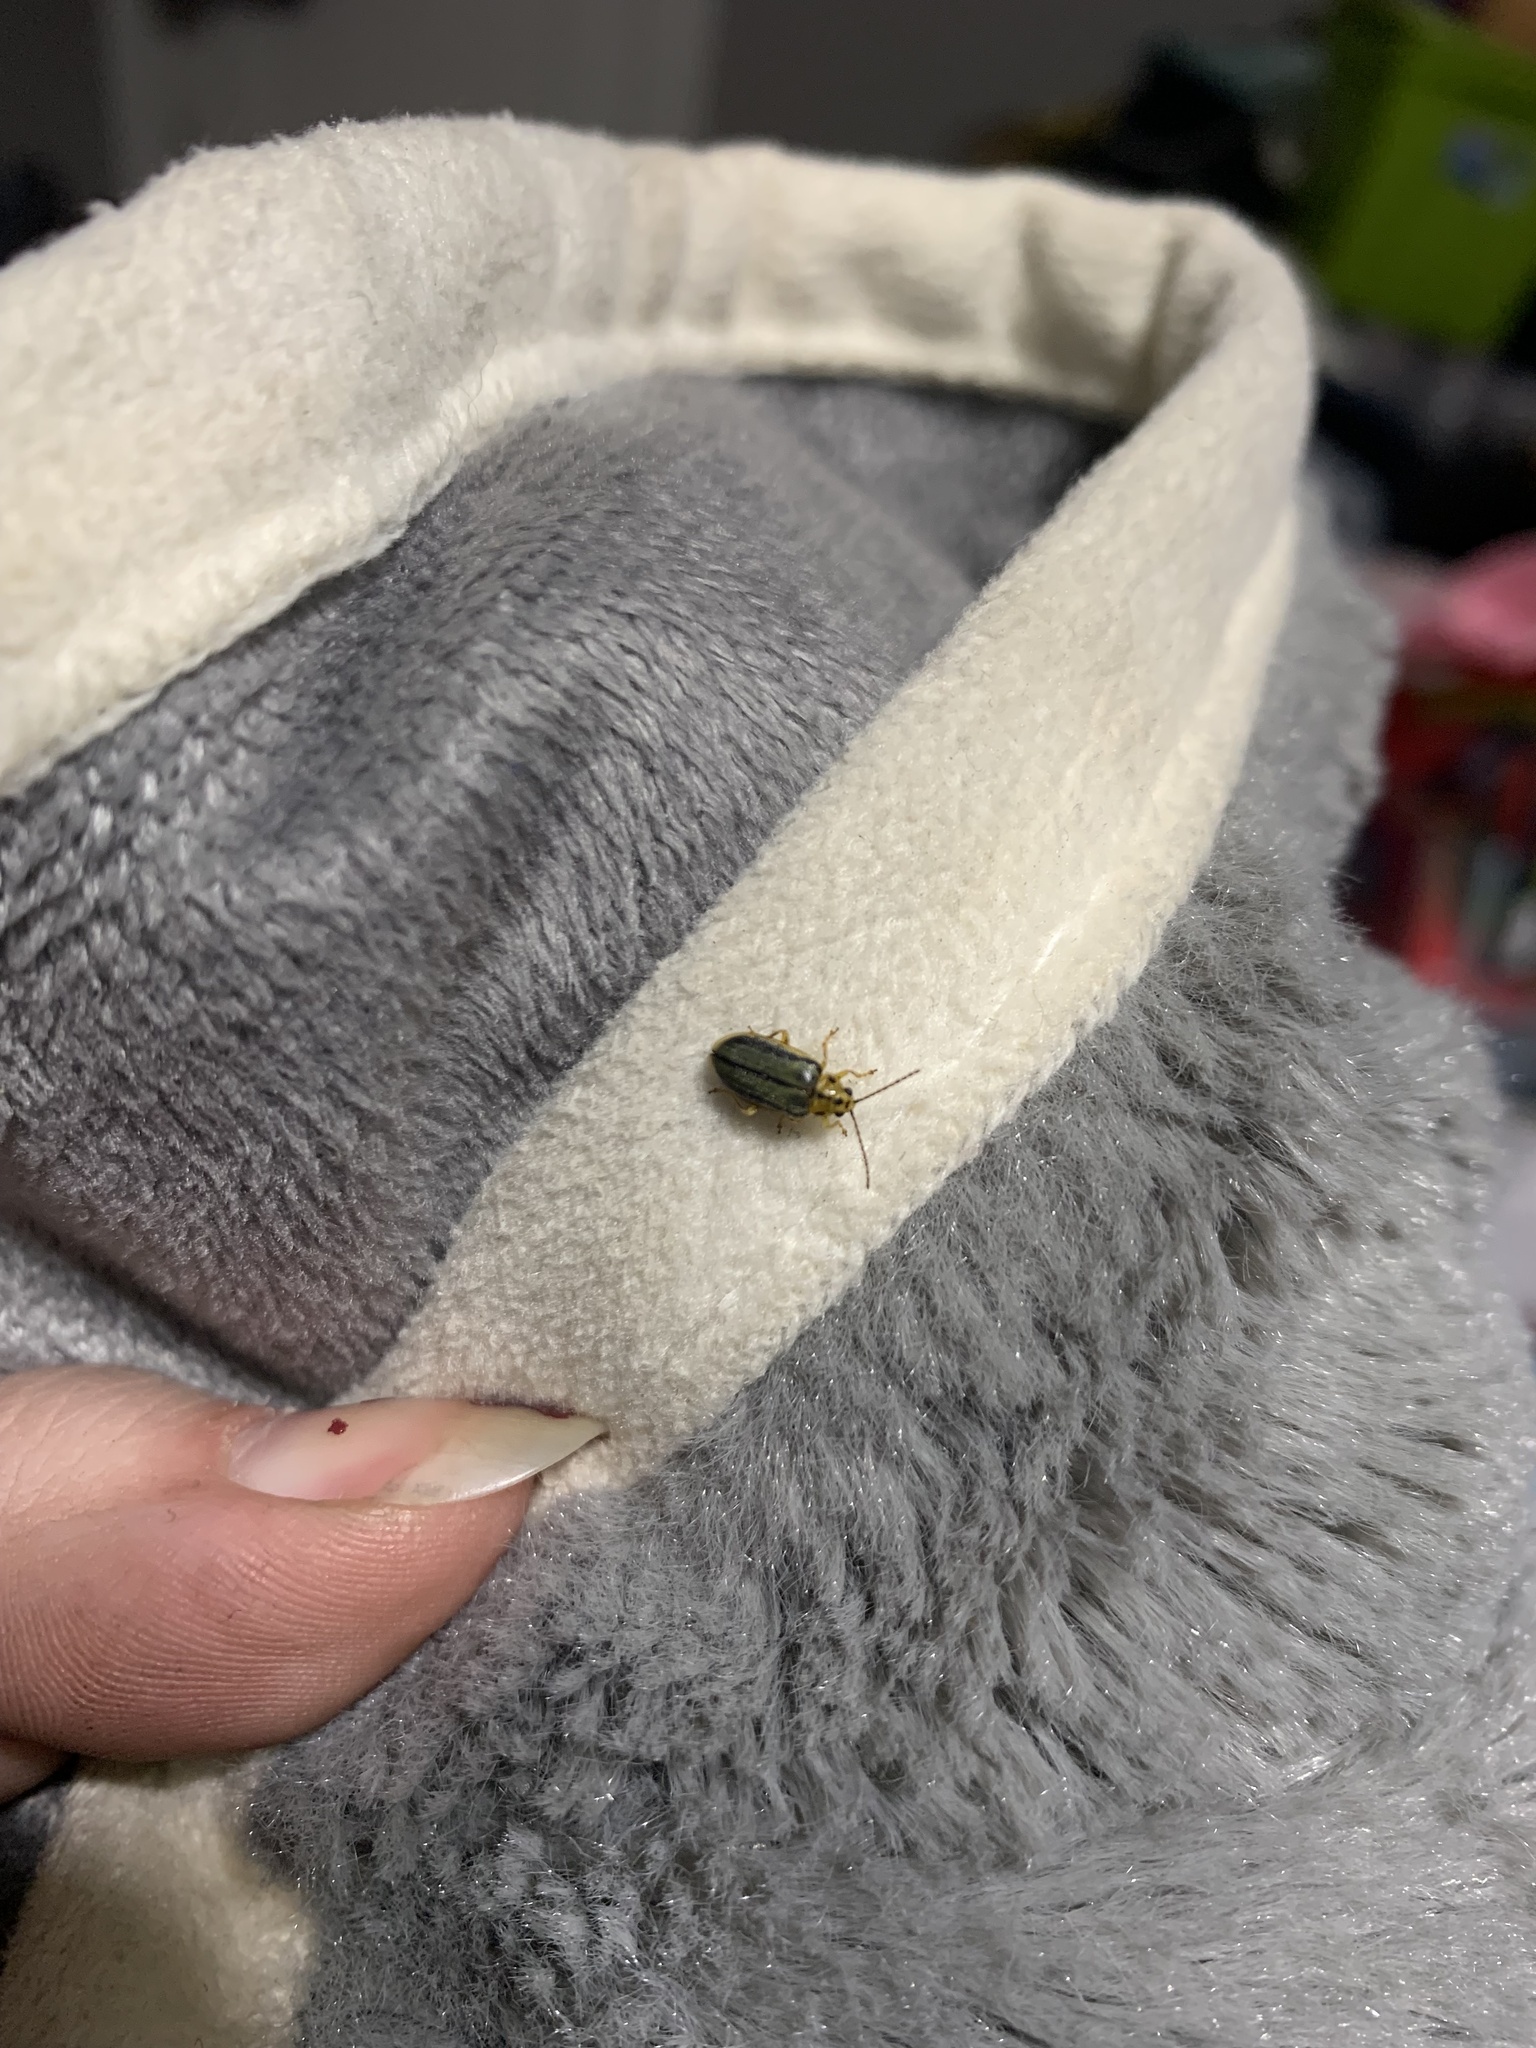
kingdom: Animalia
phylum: Arthropoda
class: Insecta
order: Coleoptera
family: Chrysomelidae
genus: Xanthogaleruca
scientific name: Xanthogaleruca luteola
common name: Elm leaf beetle
